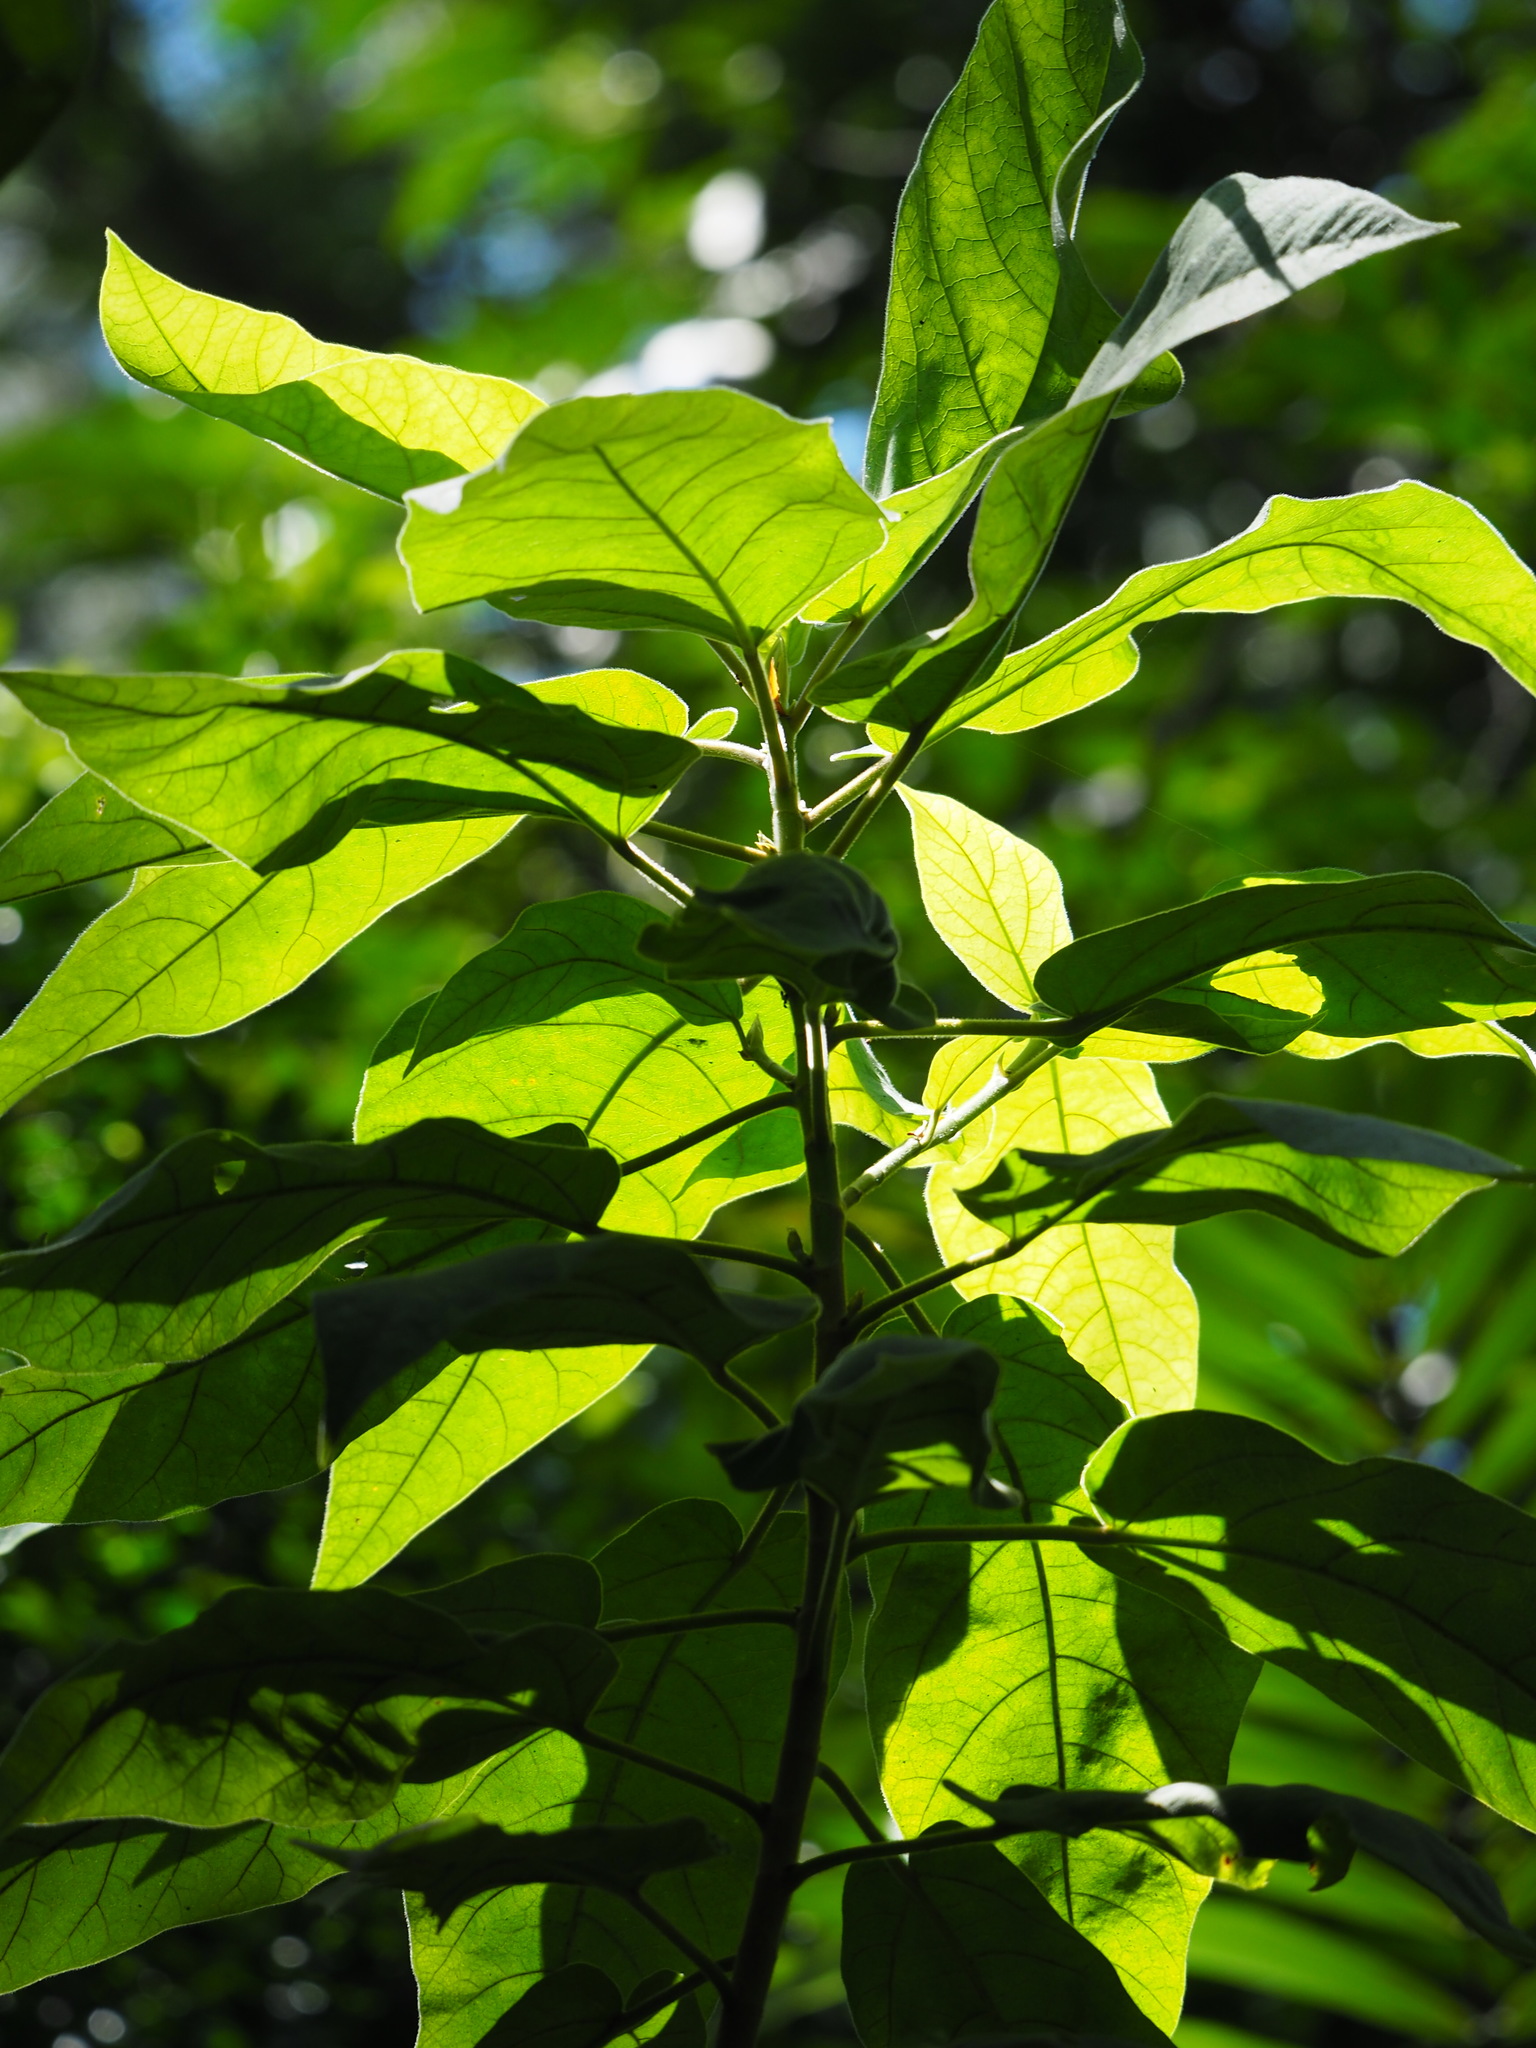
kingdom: Plantae
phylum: Tracheophyta
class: Magnoliopsida
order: Rosales
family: Moraceae
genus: Ficus
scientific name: Ficus erecta
